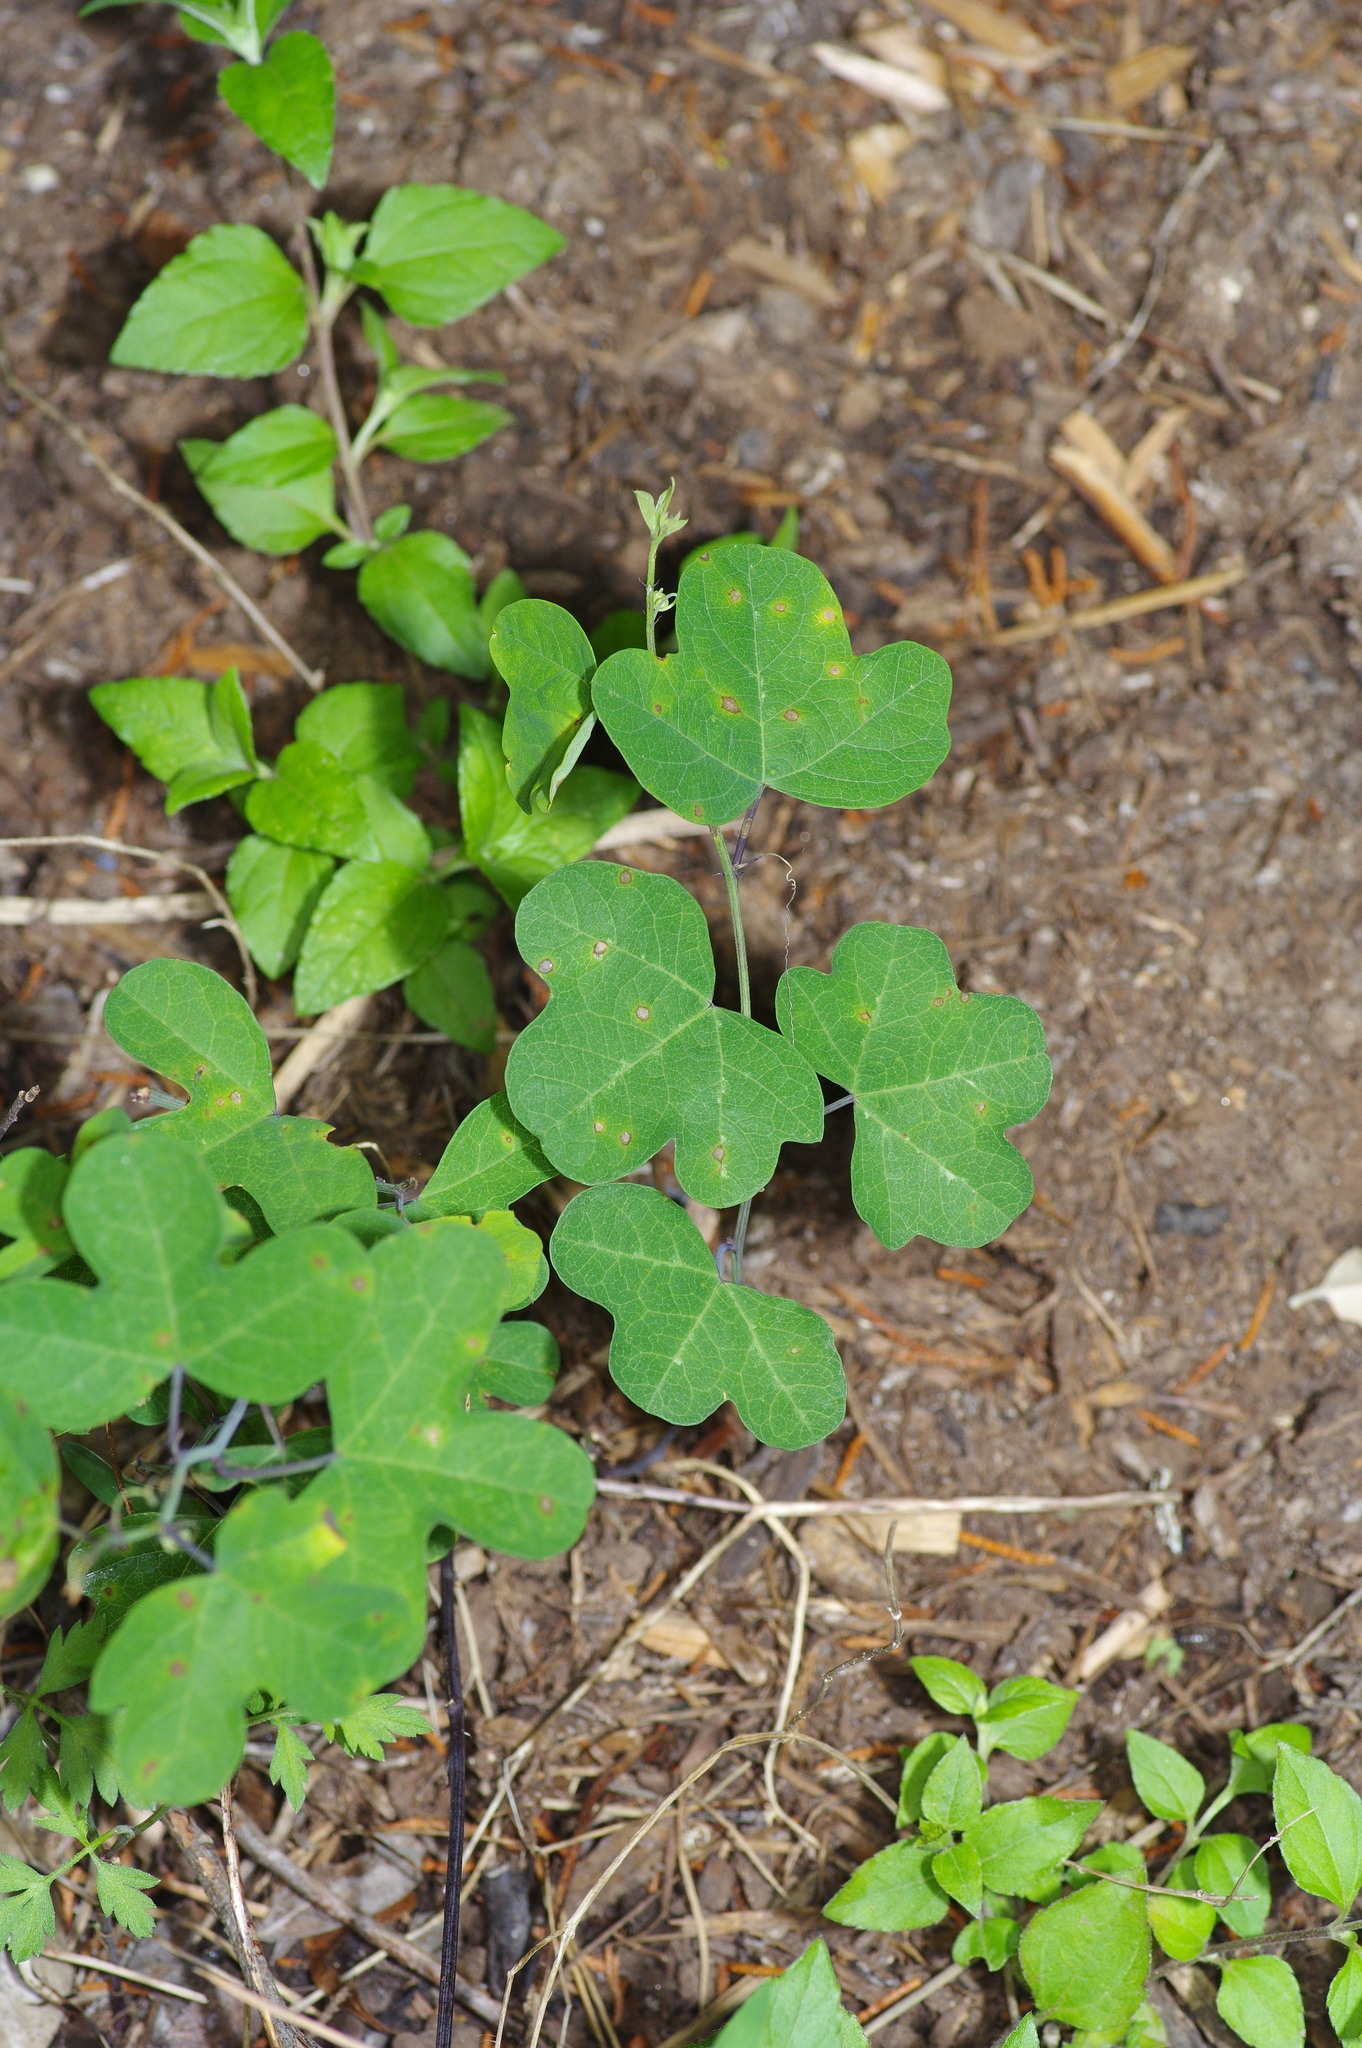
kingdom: Plantae
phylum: Tracheophyta
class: Magnoliopsida
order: Malpighiales
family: Passifloraceae
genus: Passiflora
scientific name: Passiflora affinis
